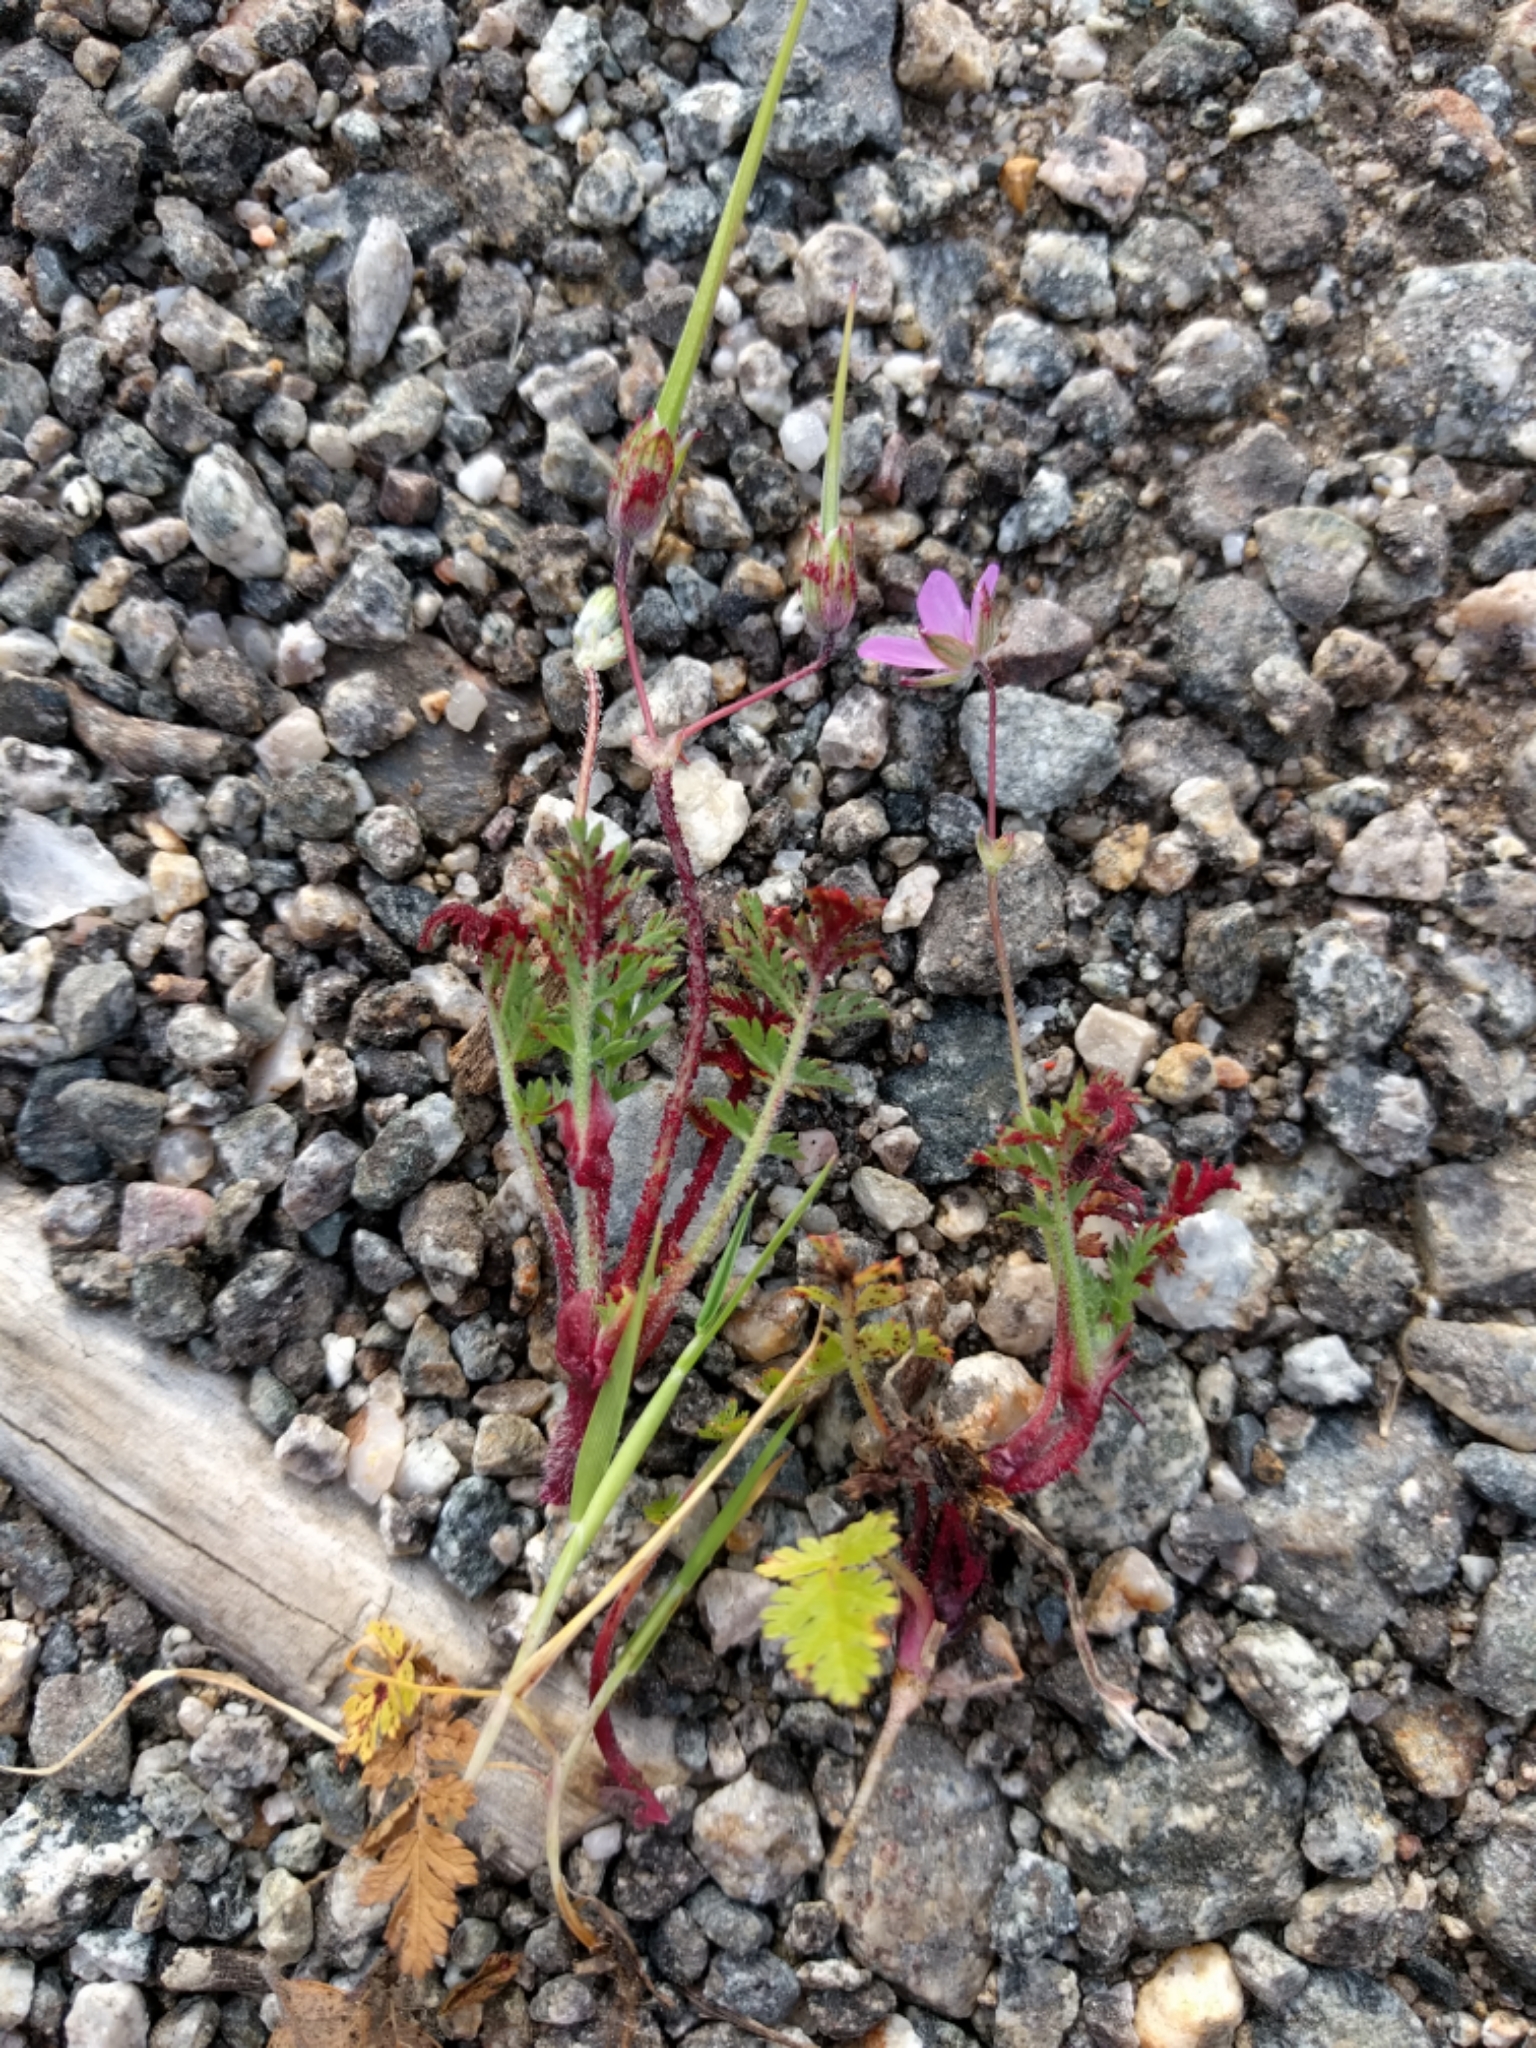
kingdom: Plantae
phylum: Tracheophyta
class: Magnoliopsida
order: Geraniales
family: Geraniaceae
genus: Erodium
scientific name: Erodium cicutarium
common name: Common stork's-bill
